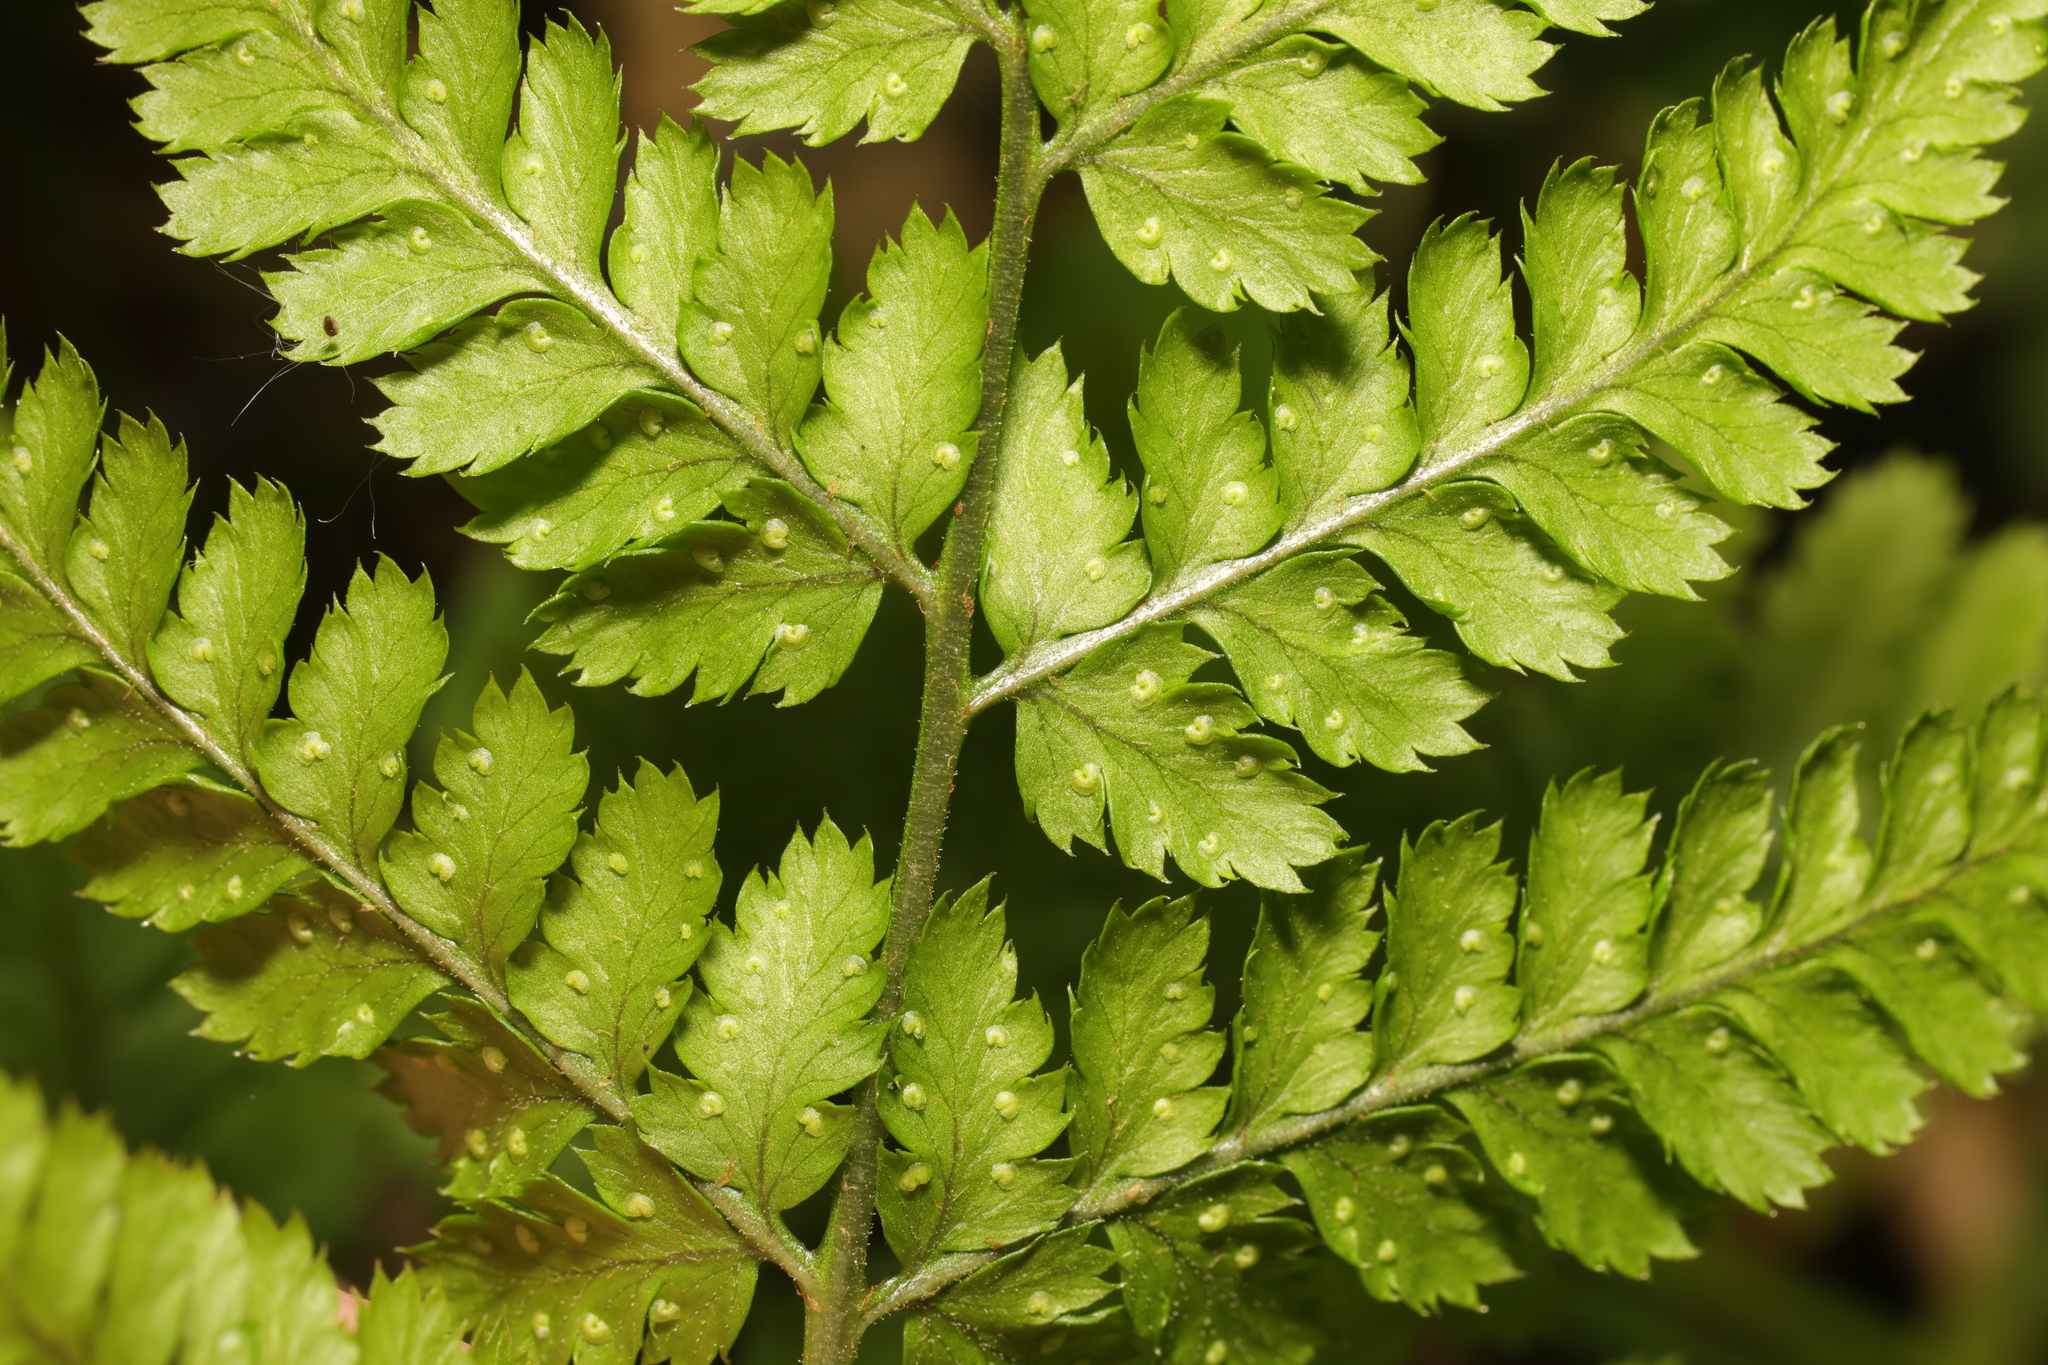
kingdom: Plantae
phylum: Tracheophyta
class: Polypodiopsida
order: Polypodiales
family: Dryopteridaceae
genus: Dryopteris
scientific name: Dryopteris dilatata
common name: Broad buckler-fern
